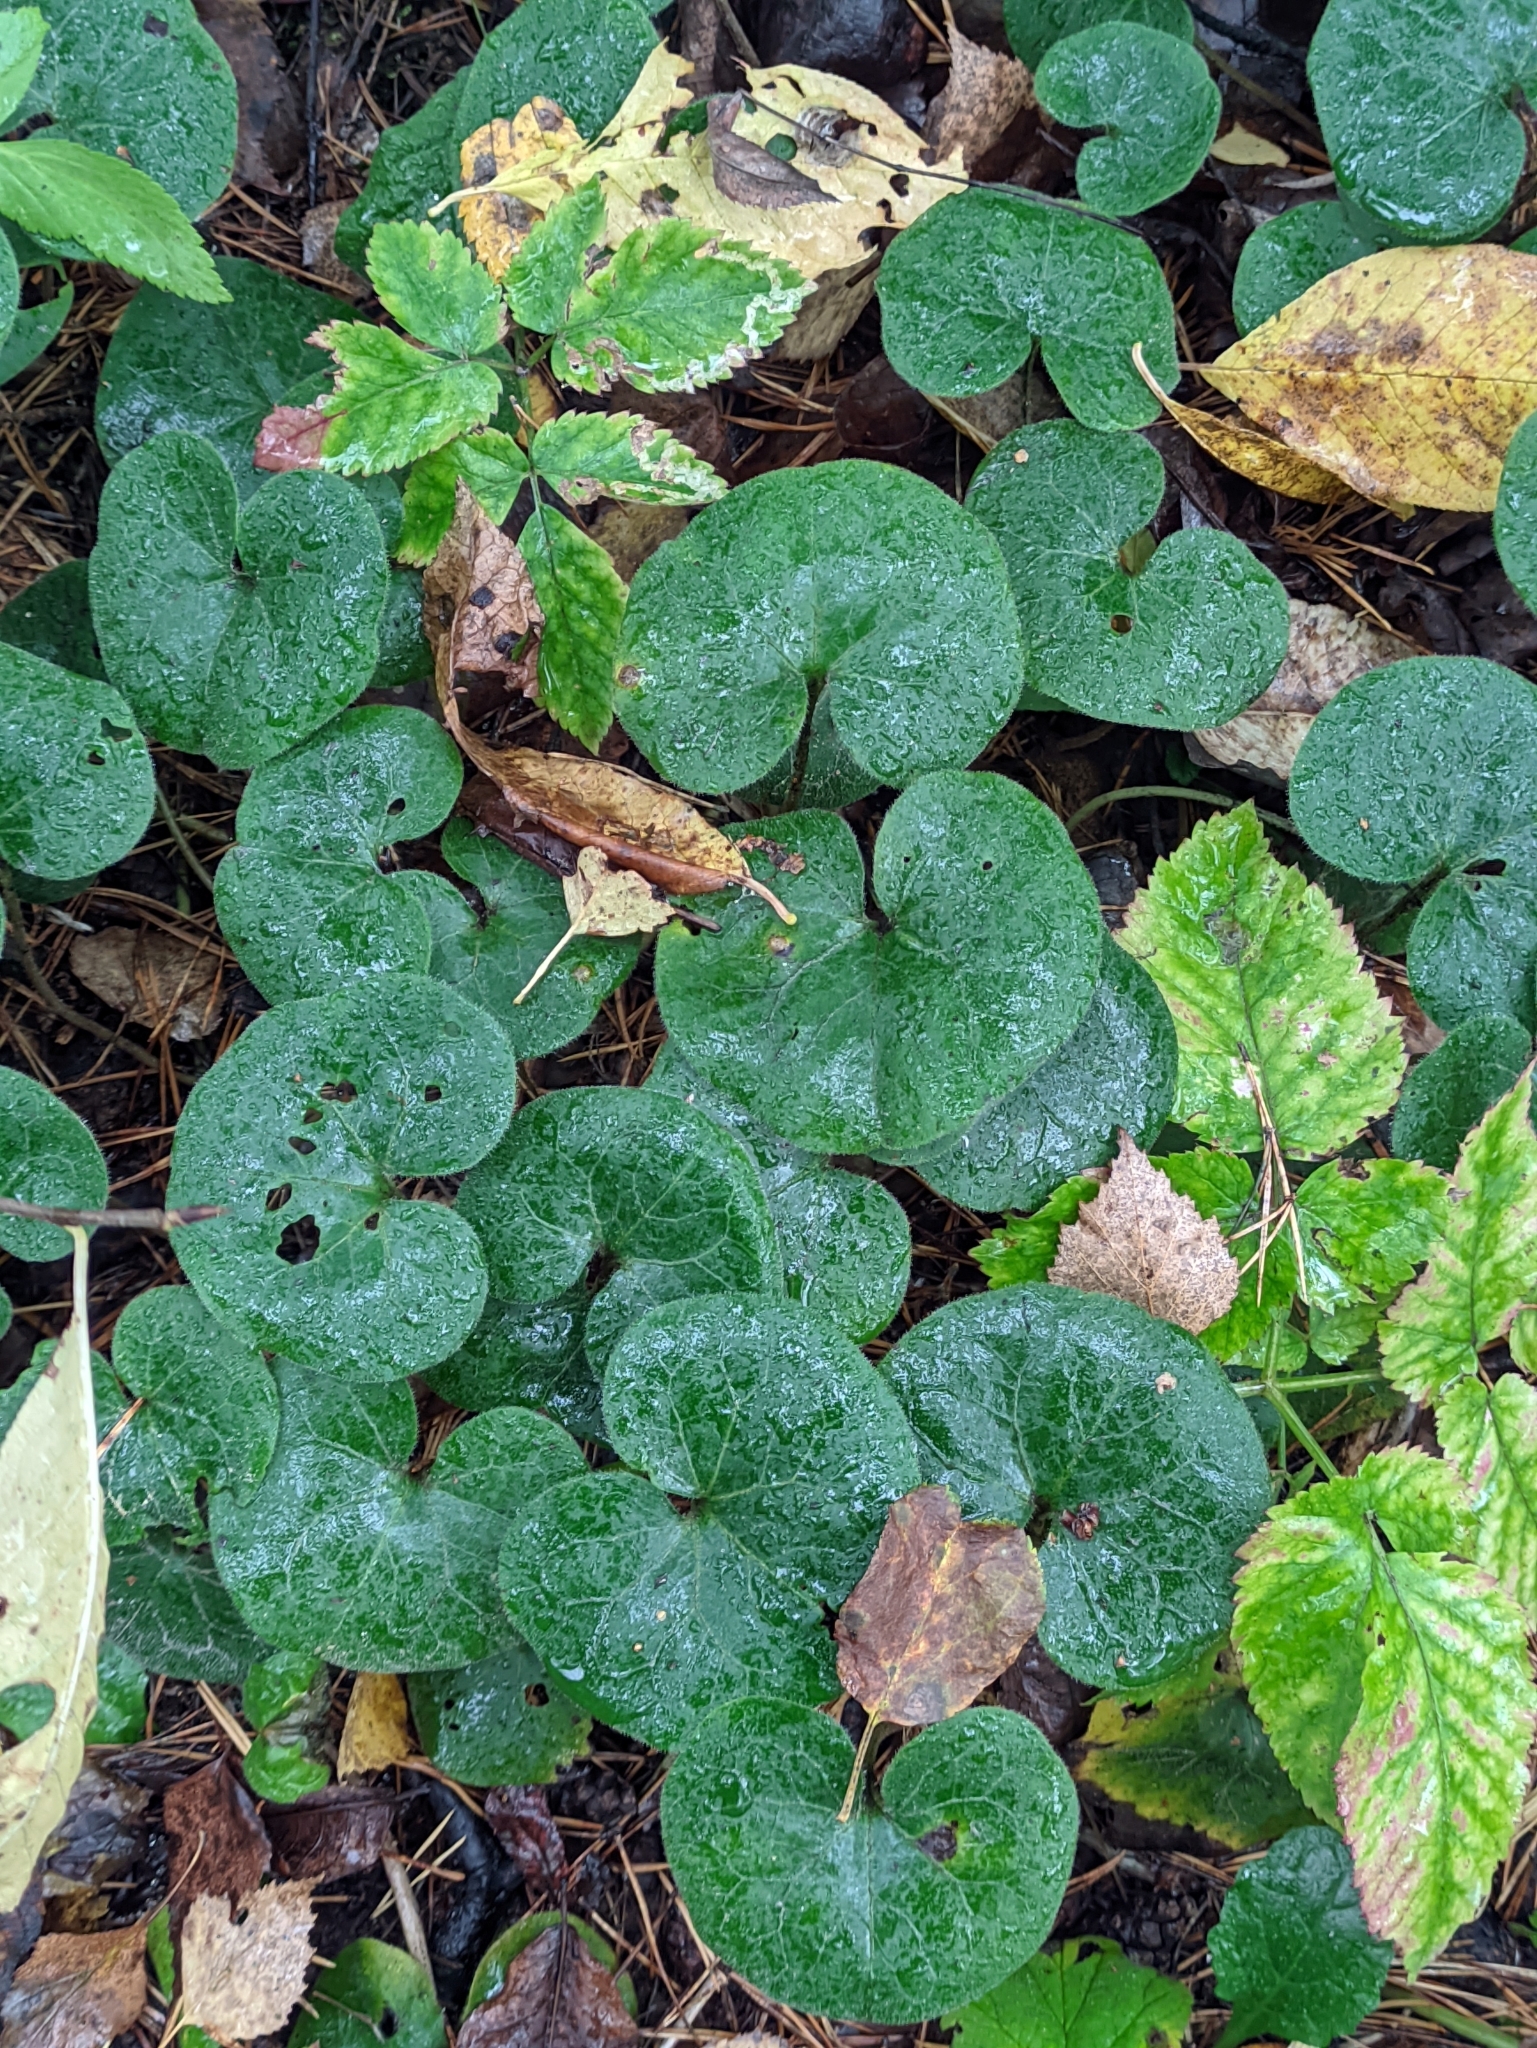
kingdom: Plantae
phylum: Tracheophyta
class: Magnoliopsida
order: Piperales
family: Aristolochiaceae
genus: Asarum
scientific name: Asarum europaeum
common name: Asarabacca
